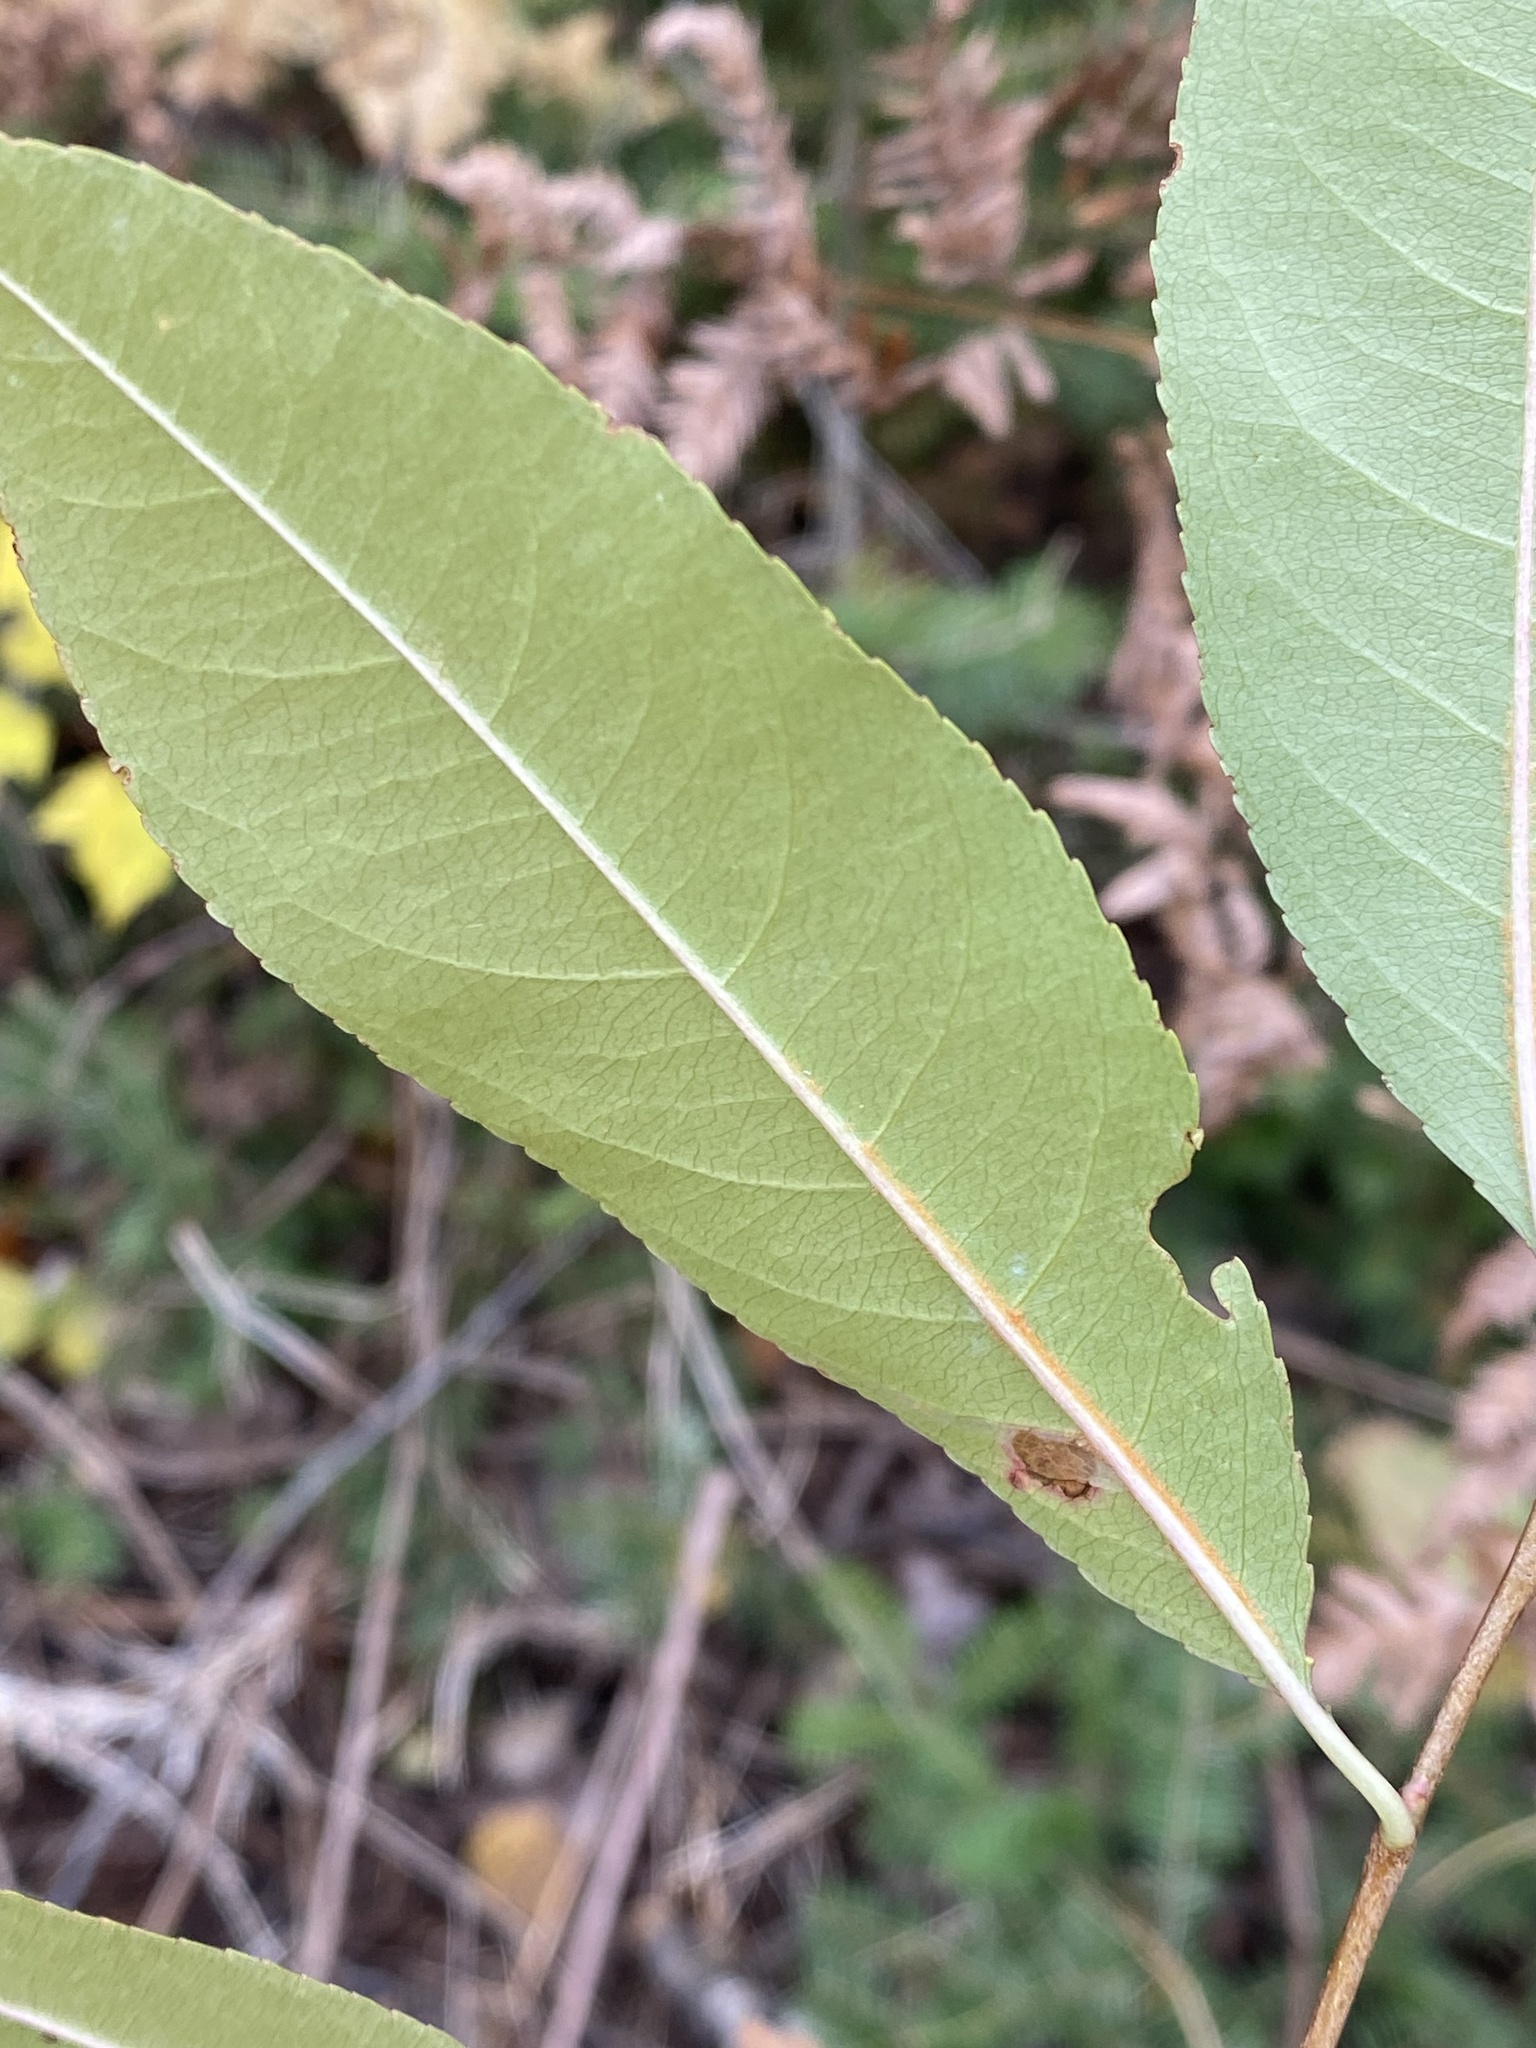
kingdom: Plantae
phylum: Tracheophyta
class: Magnoliopsida
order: Rosales
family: Rosaceae
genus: Prunus
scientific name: Prunus serotina
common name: Black cherry
